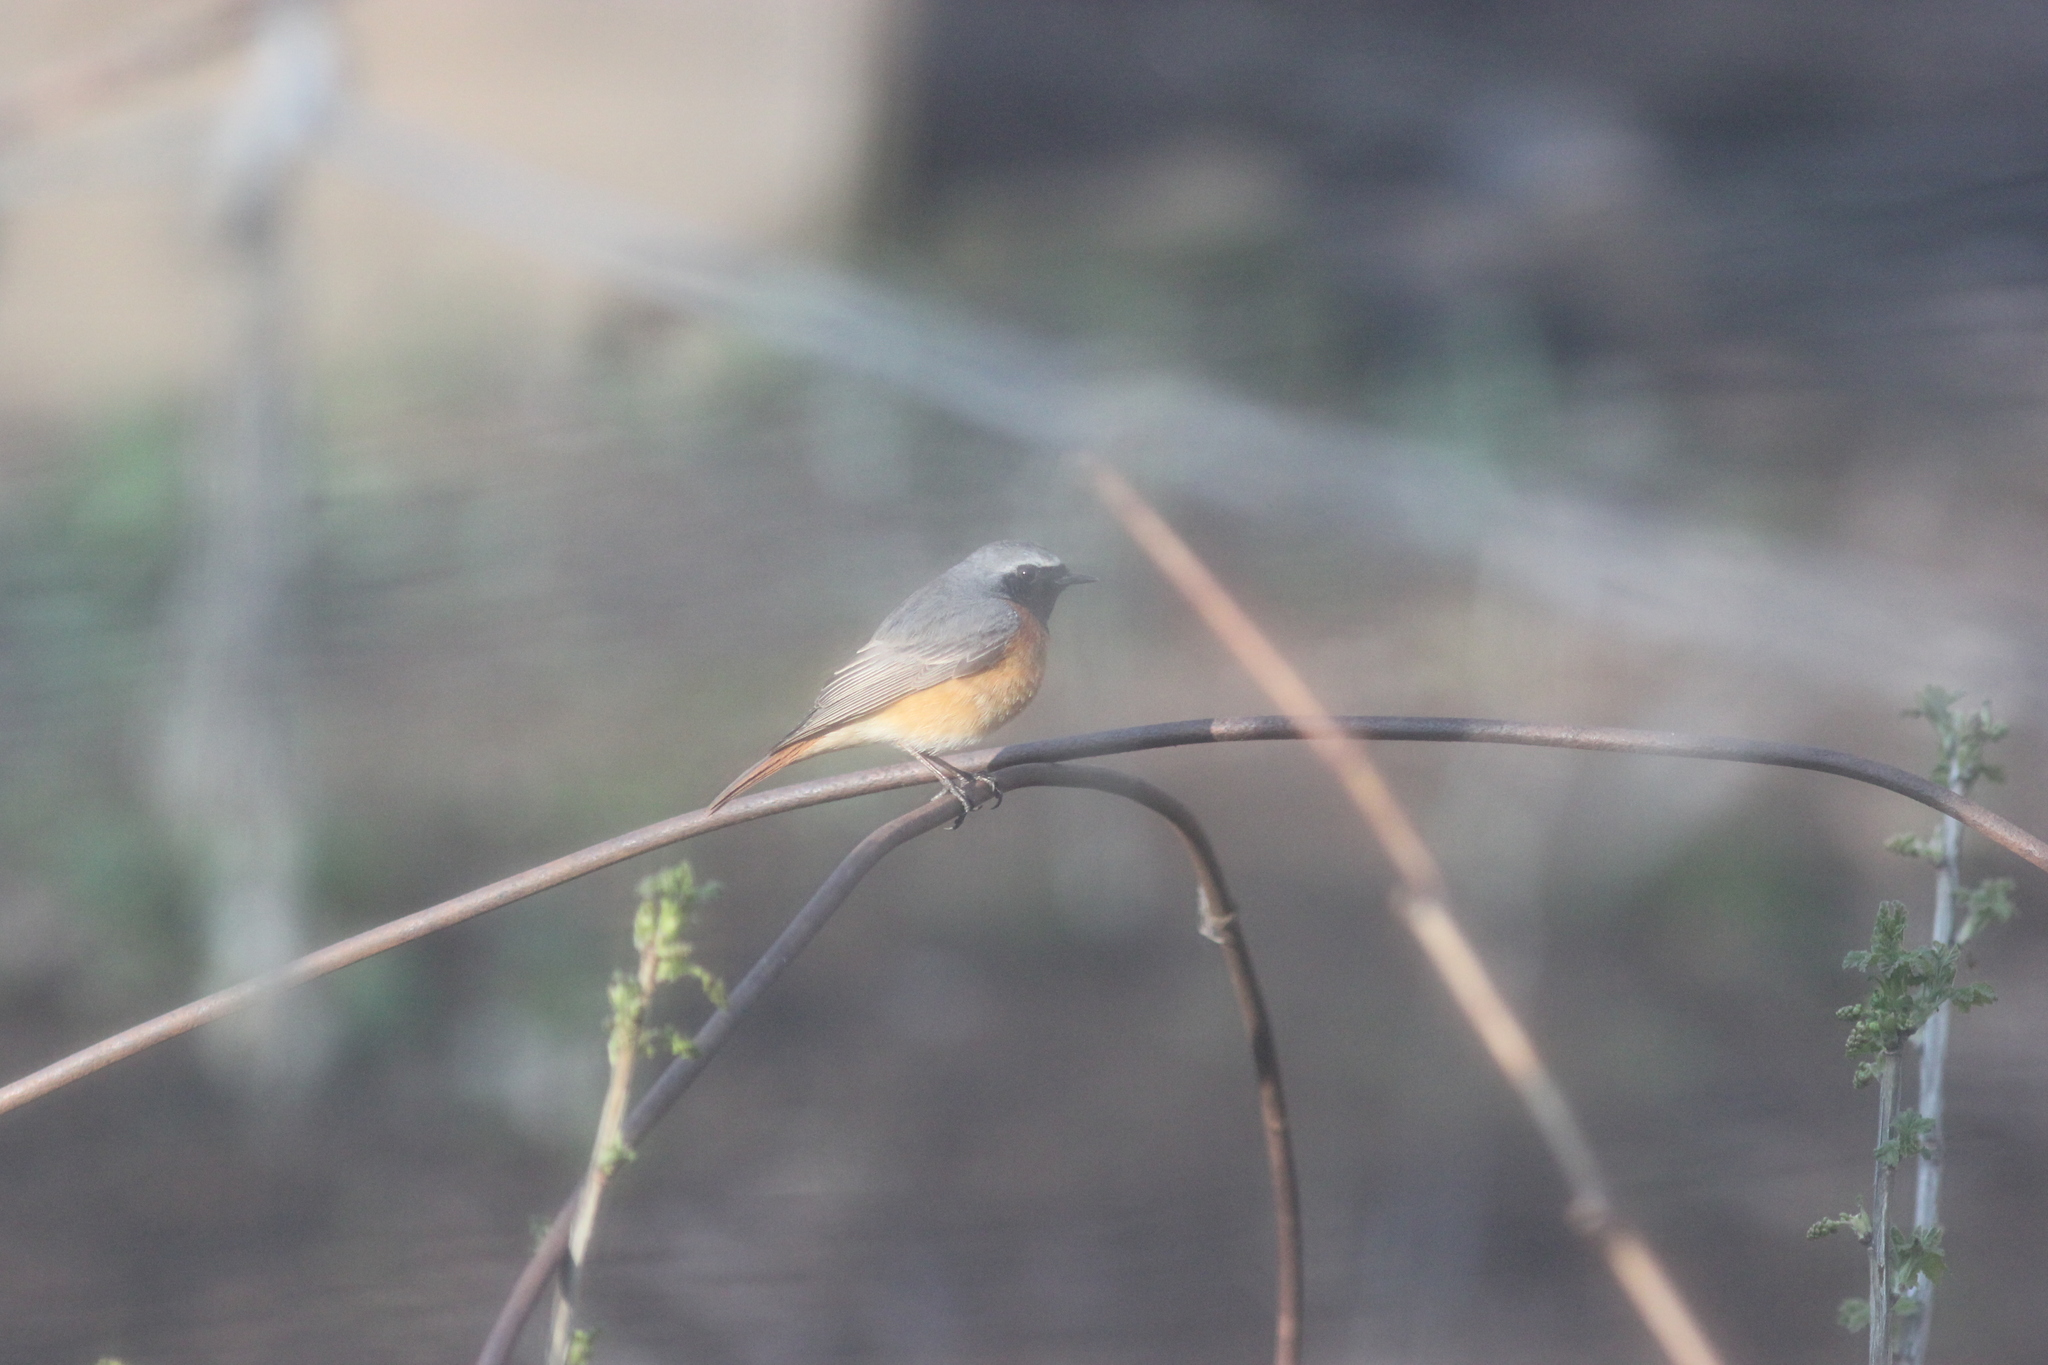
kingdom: Animalia
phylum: Chordata
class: Aves
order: Passeriformes
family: Muscicapidae
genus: Phoenicurus
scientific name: Phoenicurus phoenicurus
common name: Common redstart
